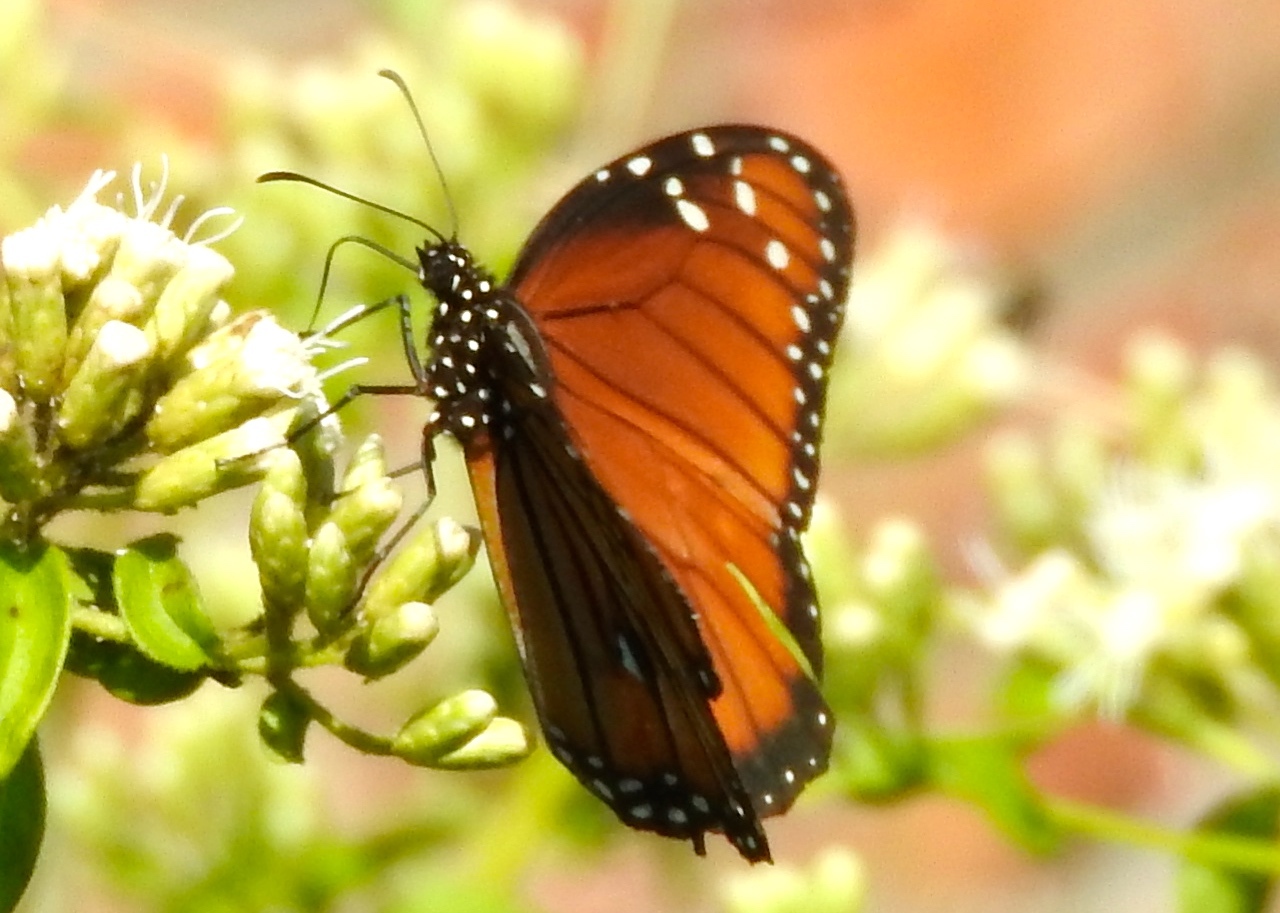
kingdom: Animalia
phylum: Arthropoda
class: Insecta
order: Lepidoptera
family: Nymphalidae
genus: Danaus
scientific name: Danaus eresimus
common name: Soldier
